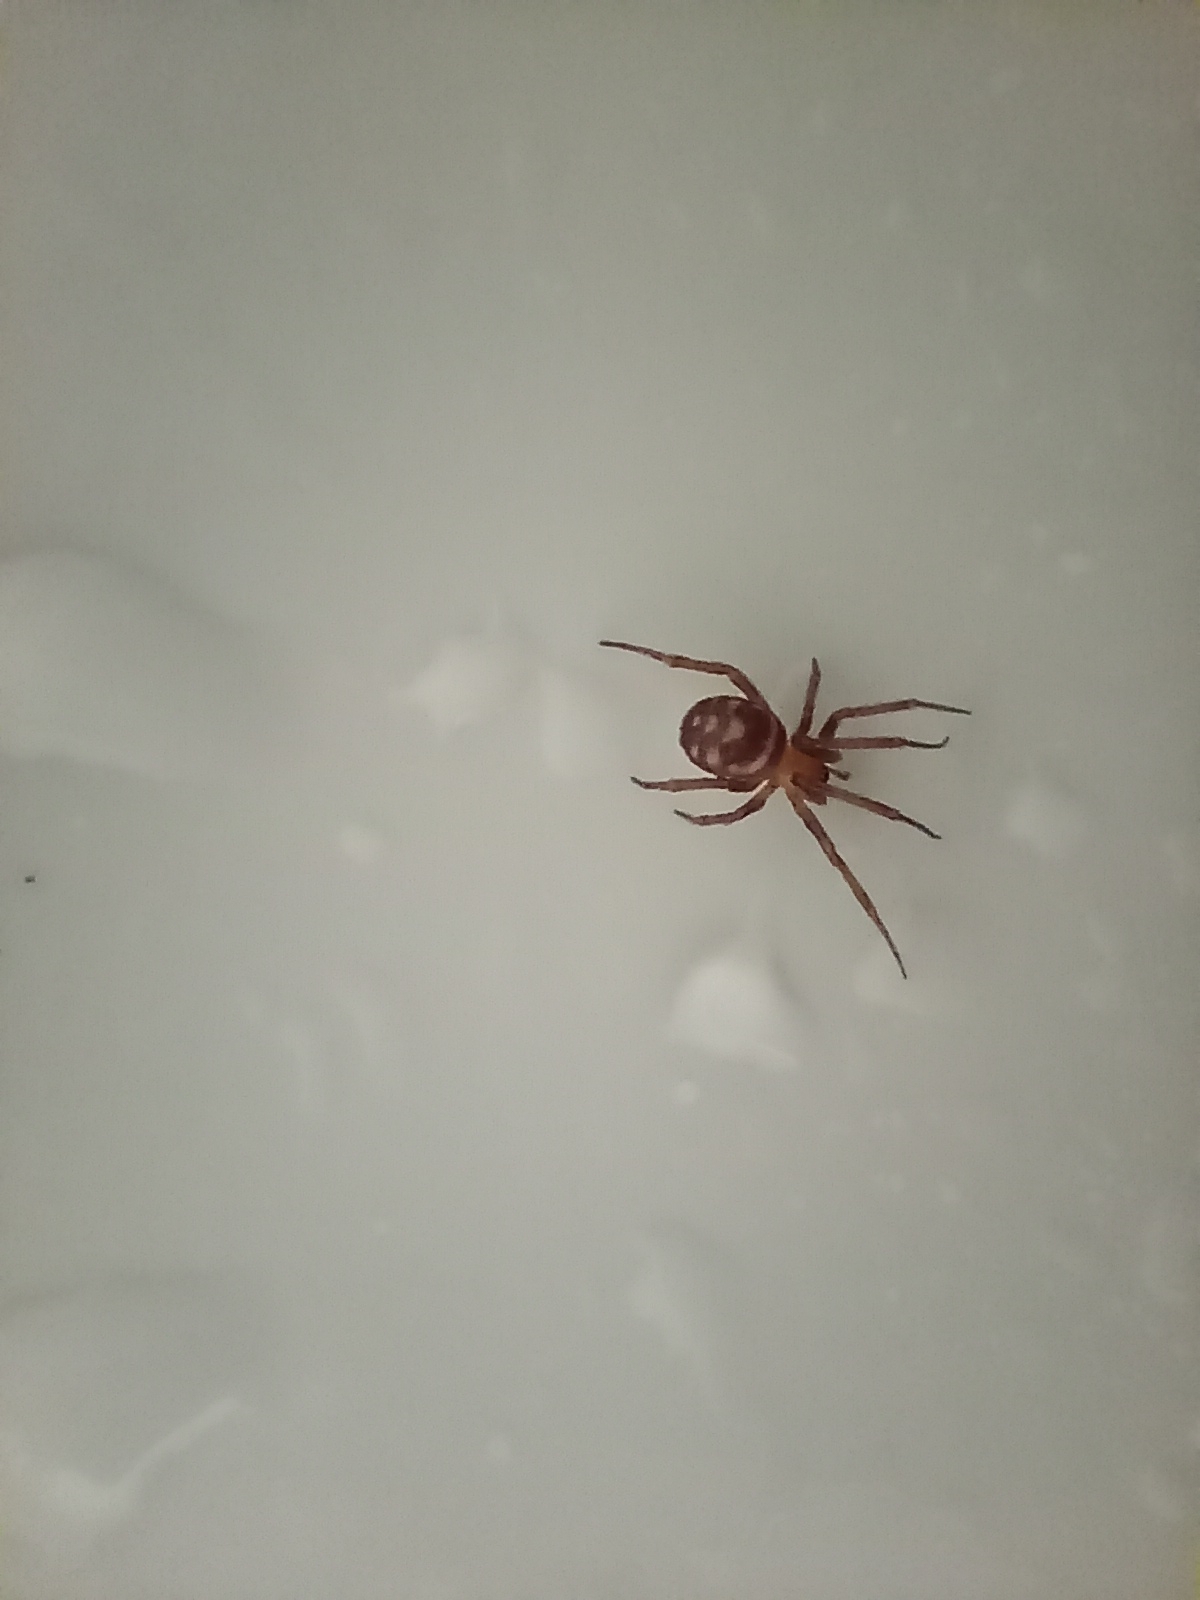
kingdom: Animalia
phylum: Arthropoda
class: Arachnida
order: Araneae
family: Theridiidae
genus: Steatoda
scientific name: Steatoda grossa
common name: False black widow
